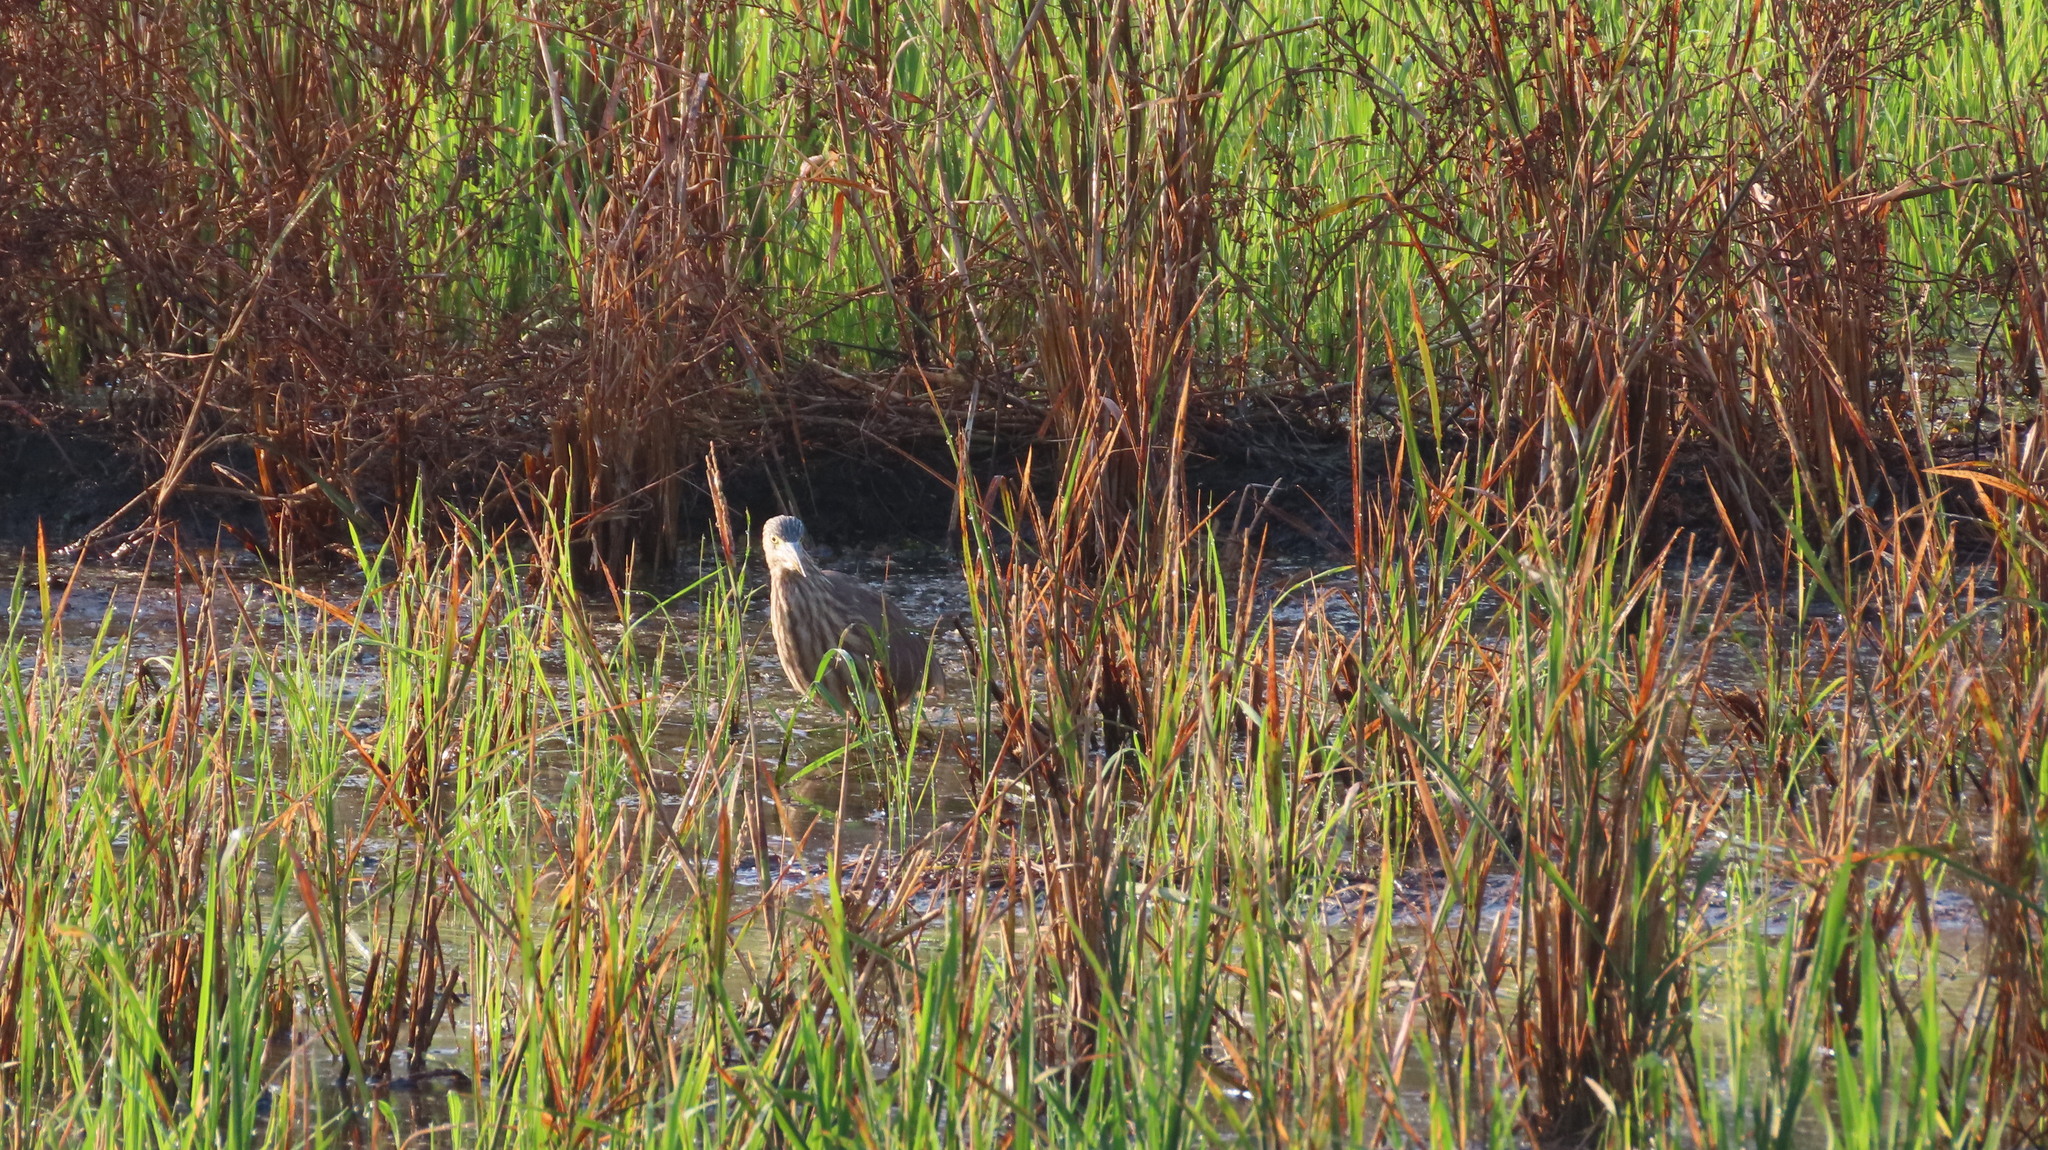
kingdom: Animalia
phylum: Chordata
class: Aves
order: Pelecaniformes
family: Ardeidae
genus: Ardeola
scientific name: Ardeola grayii
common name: Indian pond heron
